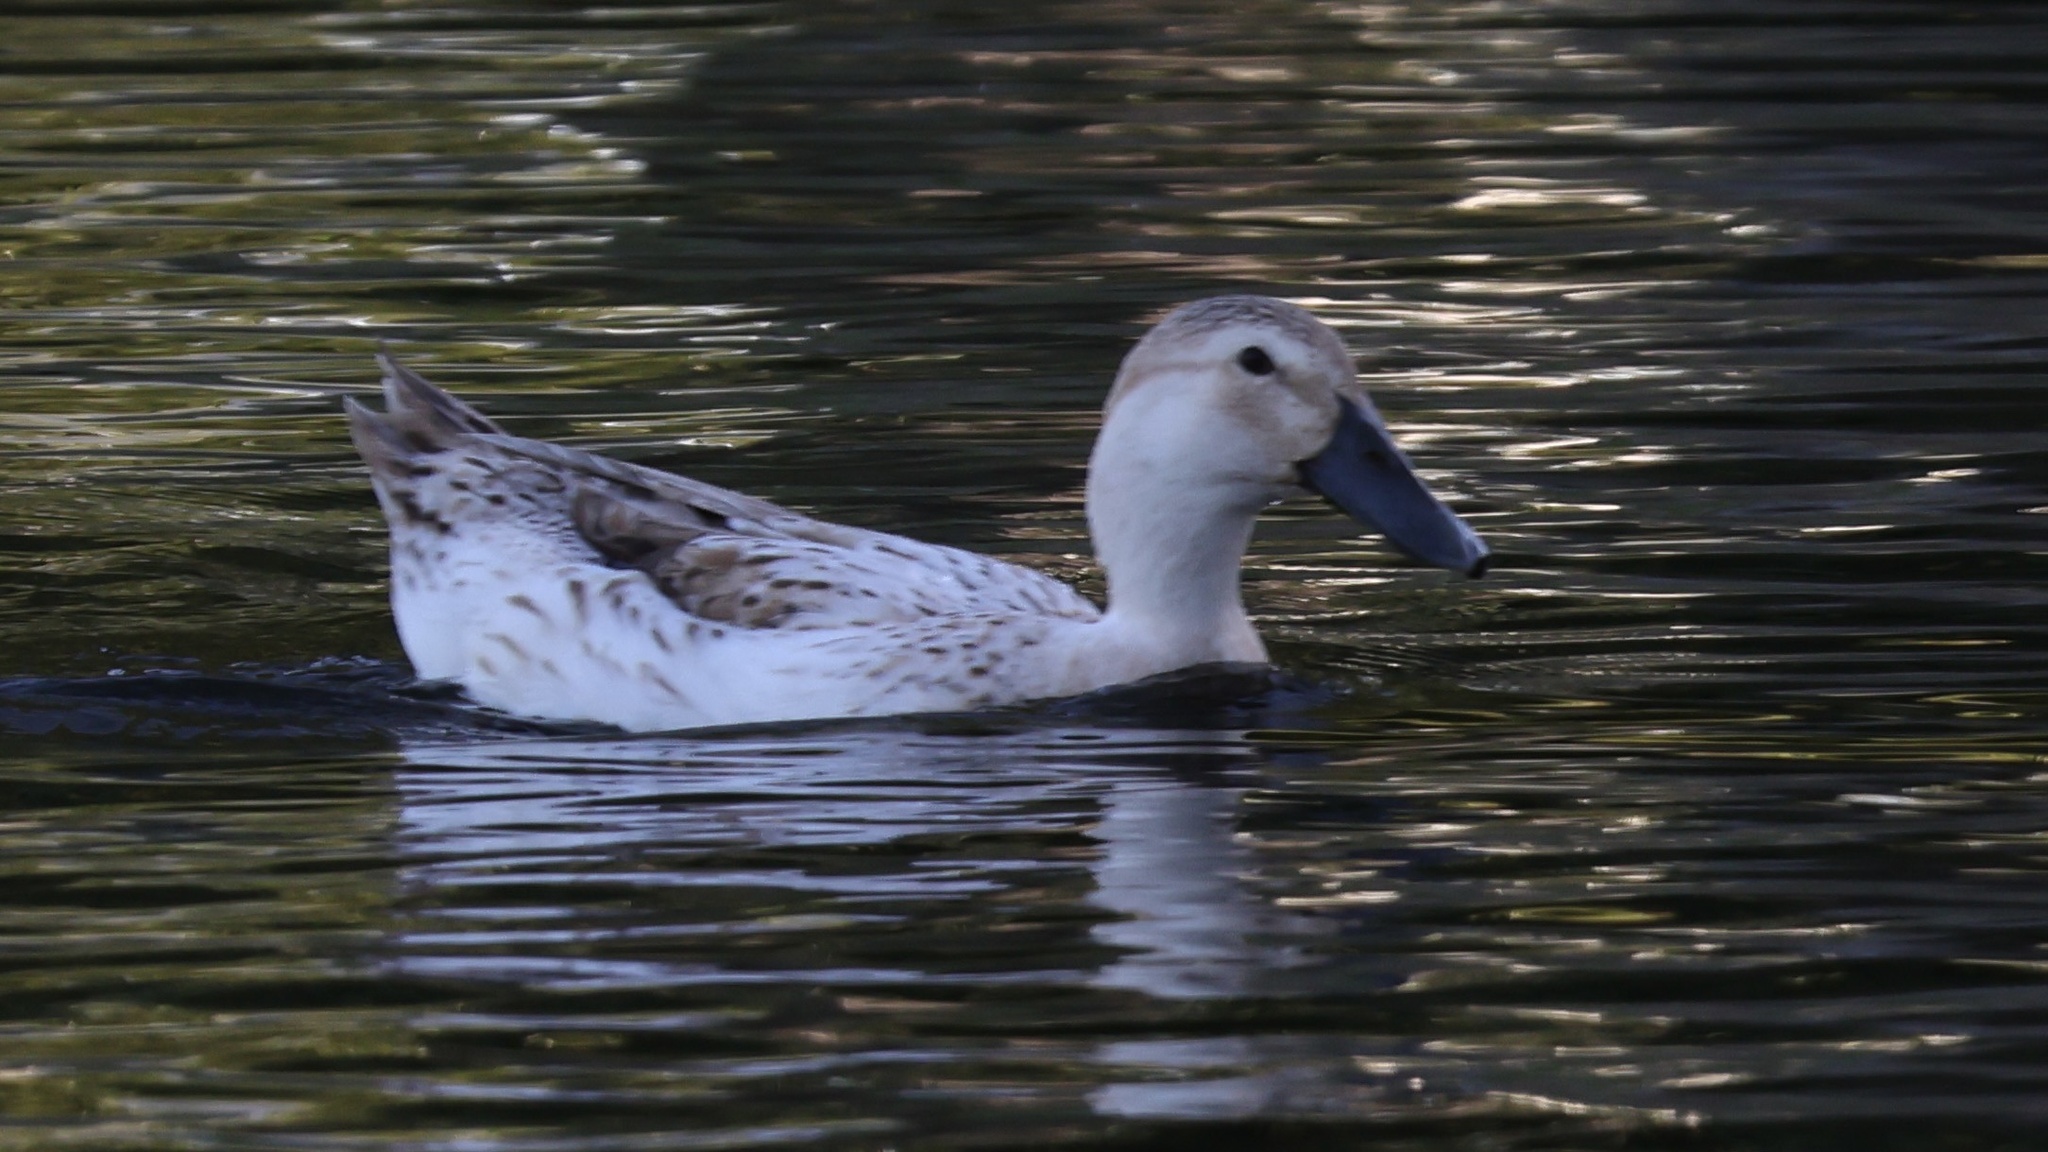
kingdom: Animalia
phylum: Chordata
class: Aves
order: Anseriformes
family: Anatidae
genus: Anas
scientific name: Anas platyrhynchos
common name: Mallard
